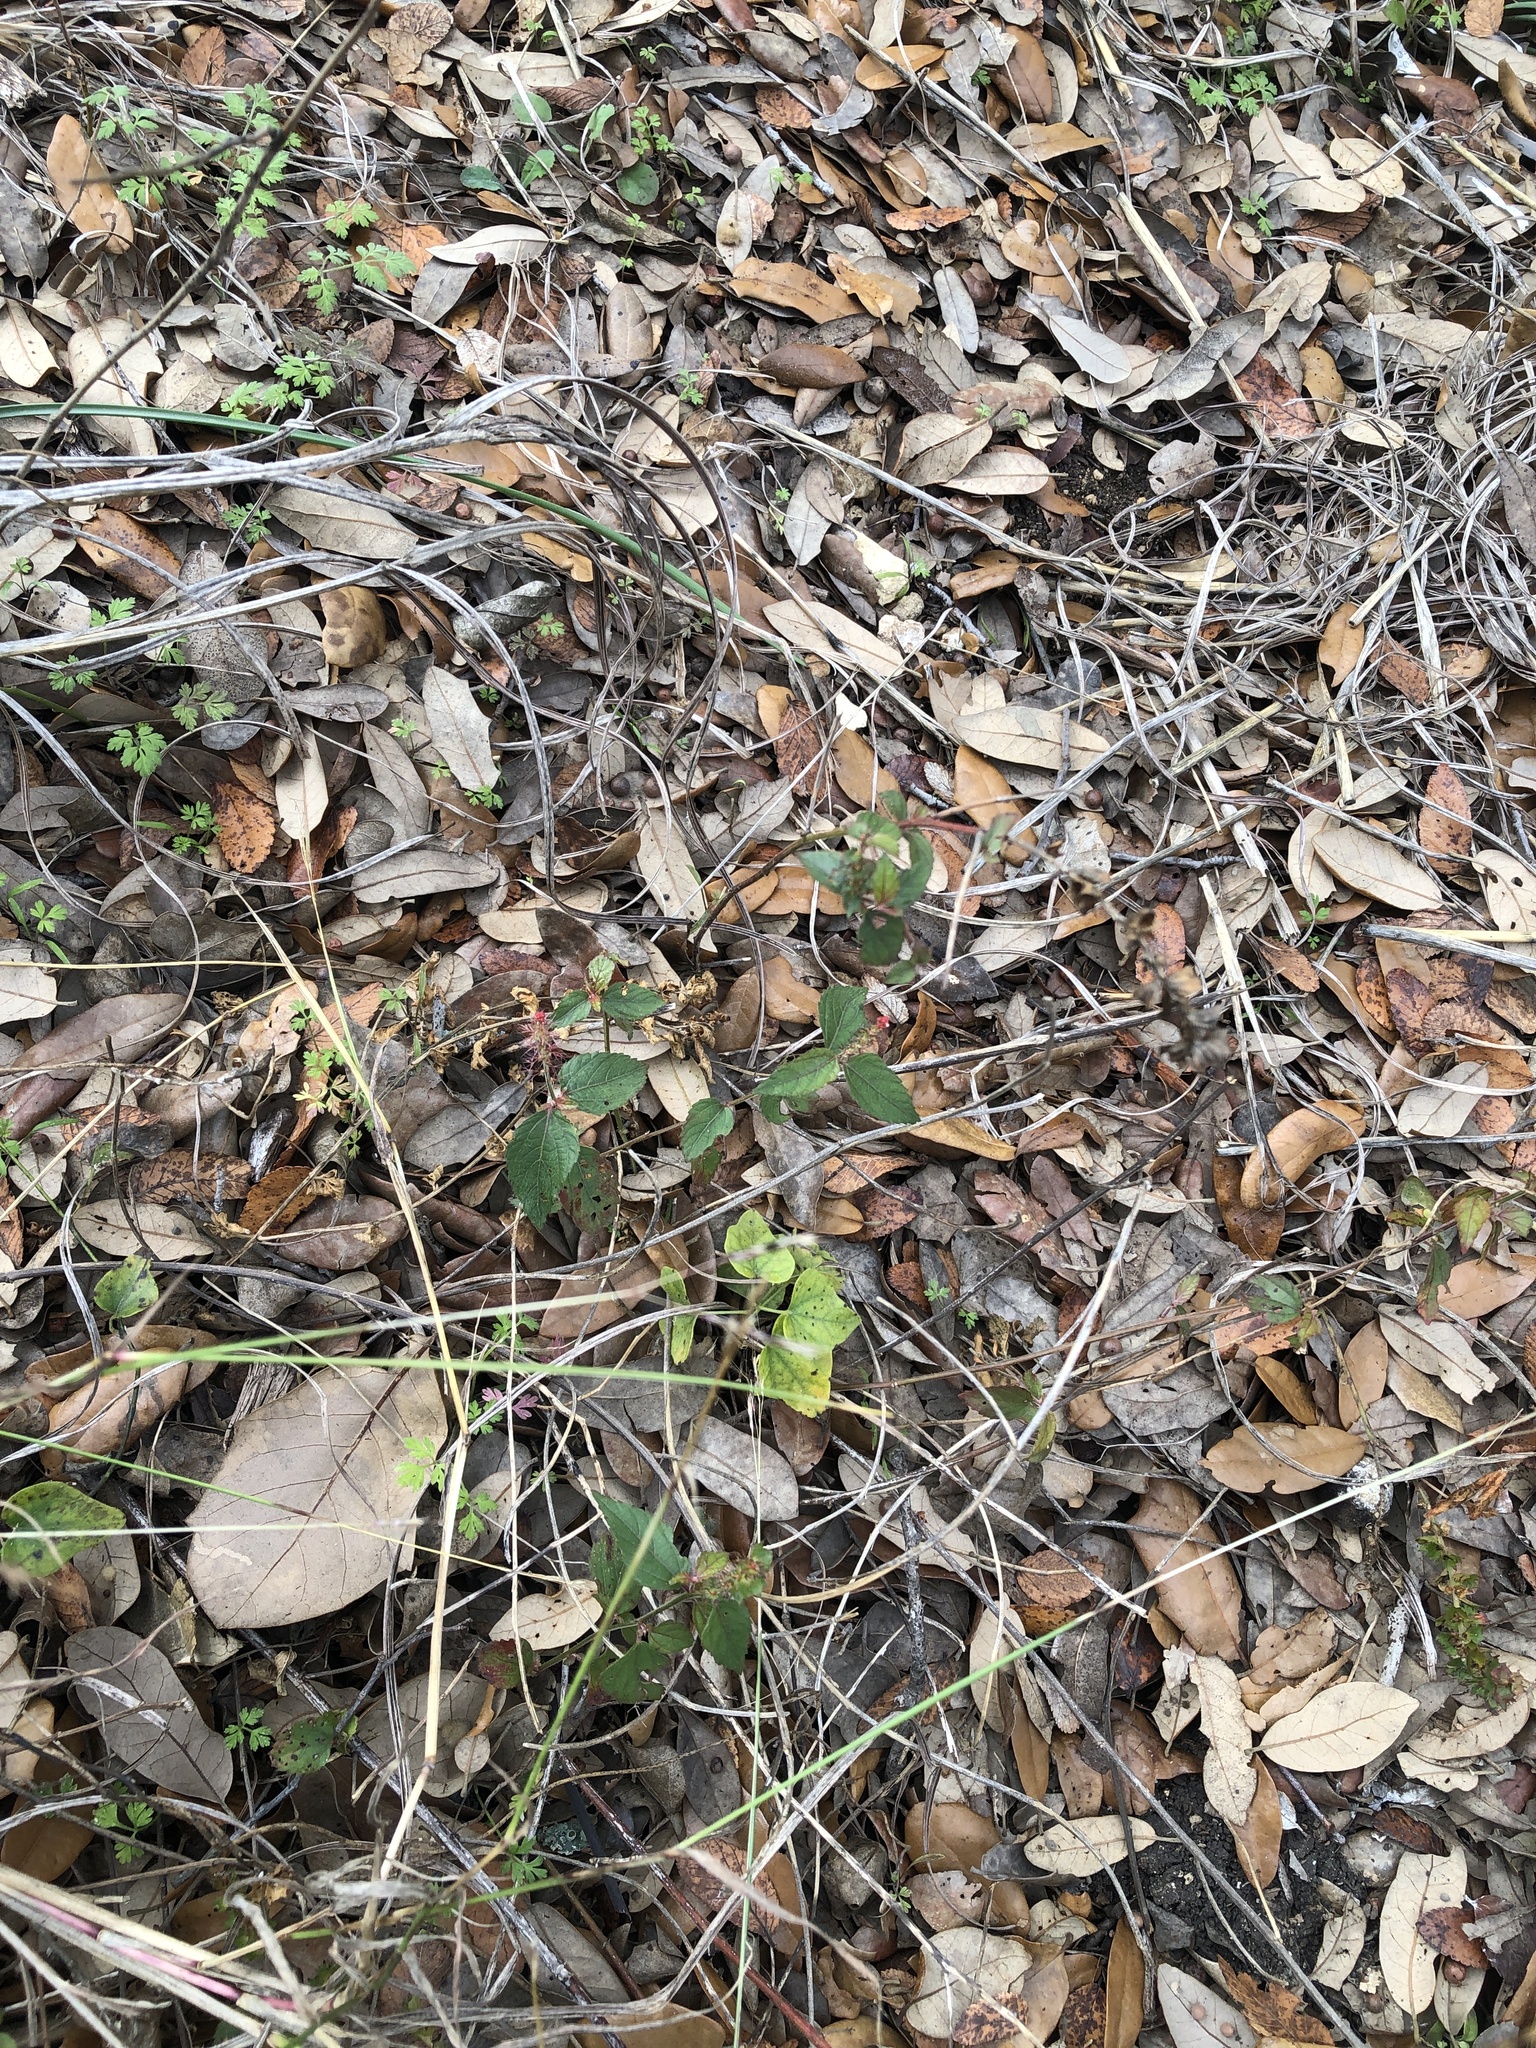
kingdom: Plantae
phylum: Tracheophyta
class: Magnoliopsida
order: Malpighiales
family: Euphorbiaceae
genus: Acalypha
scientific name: Acalypha phleoides
